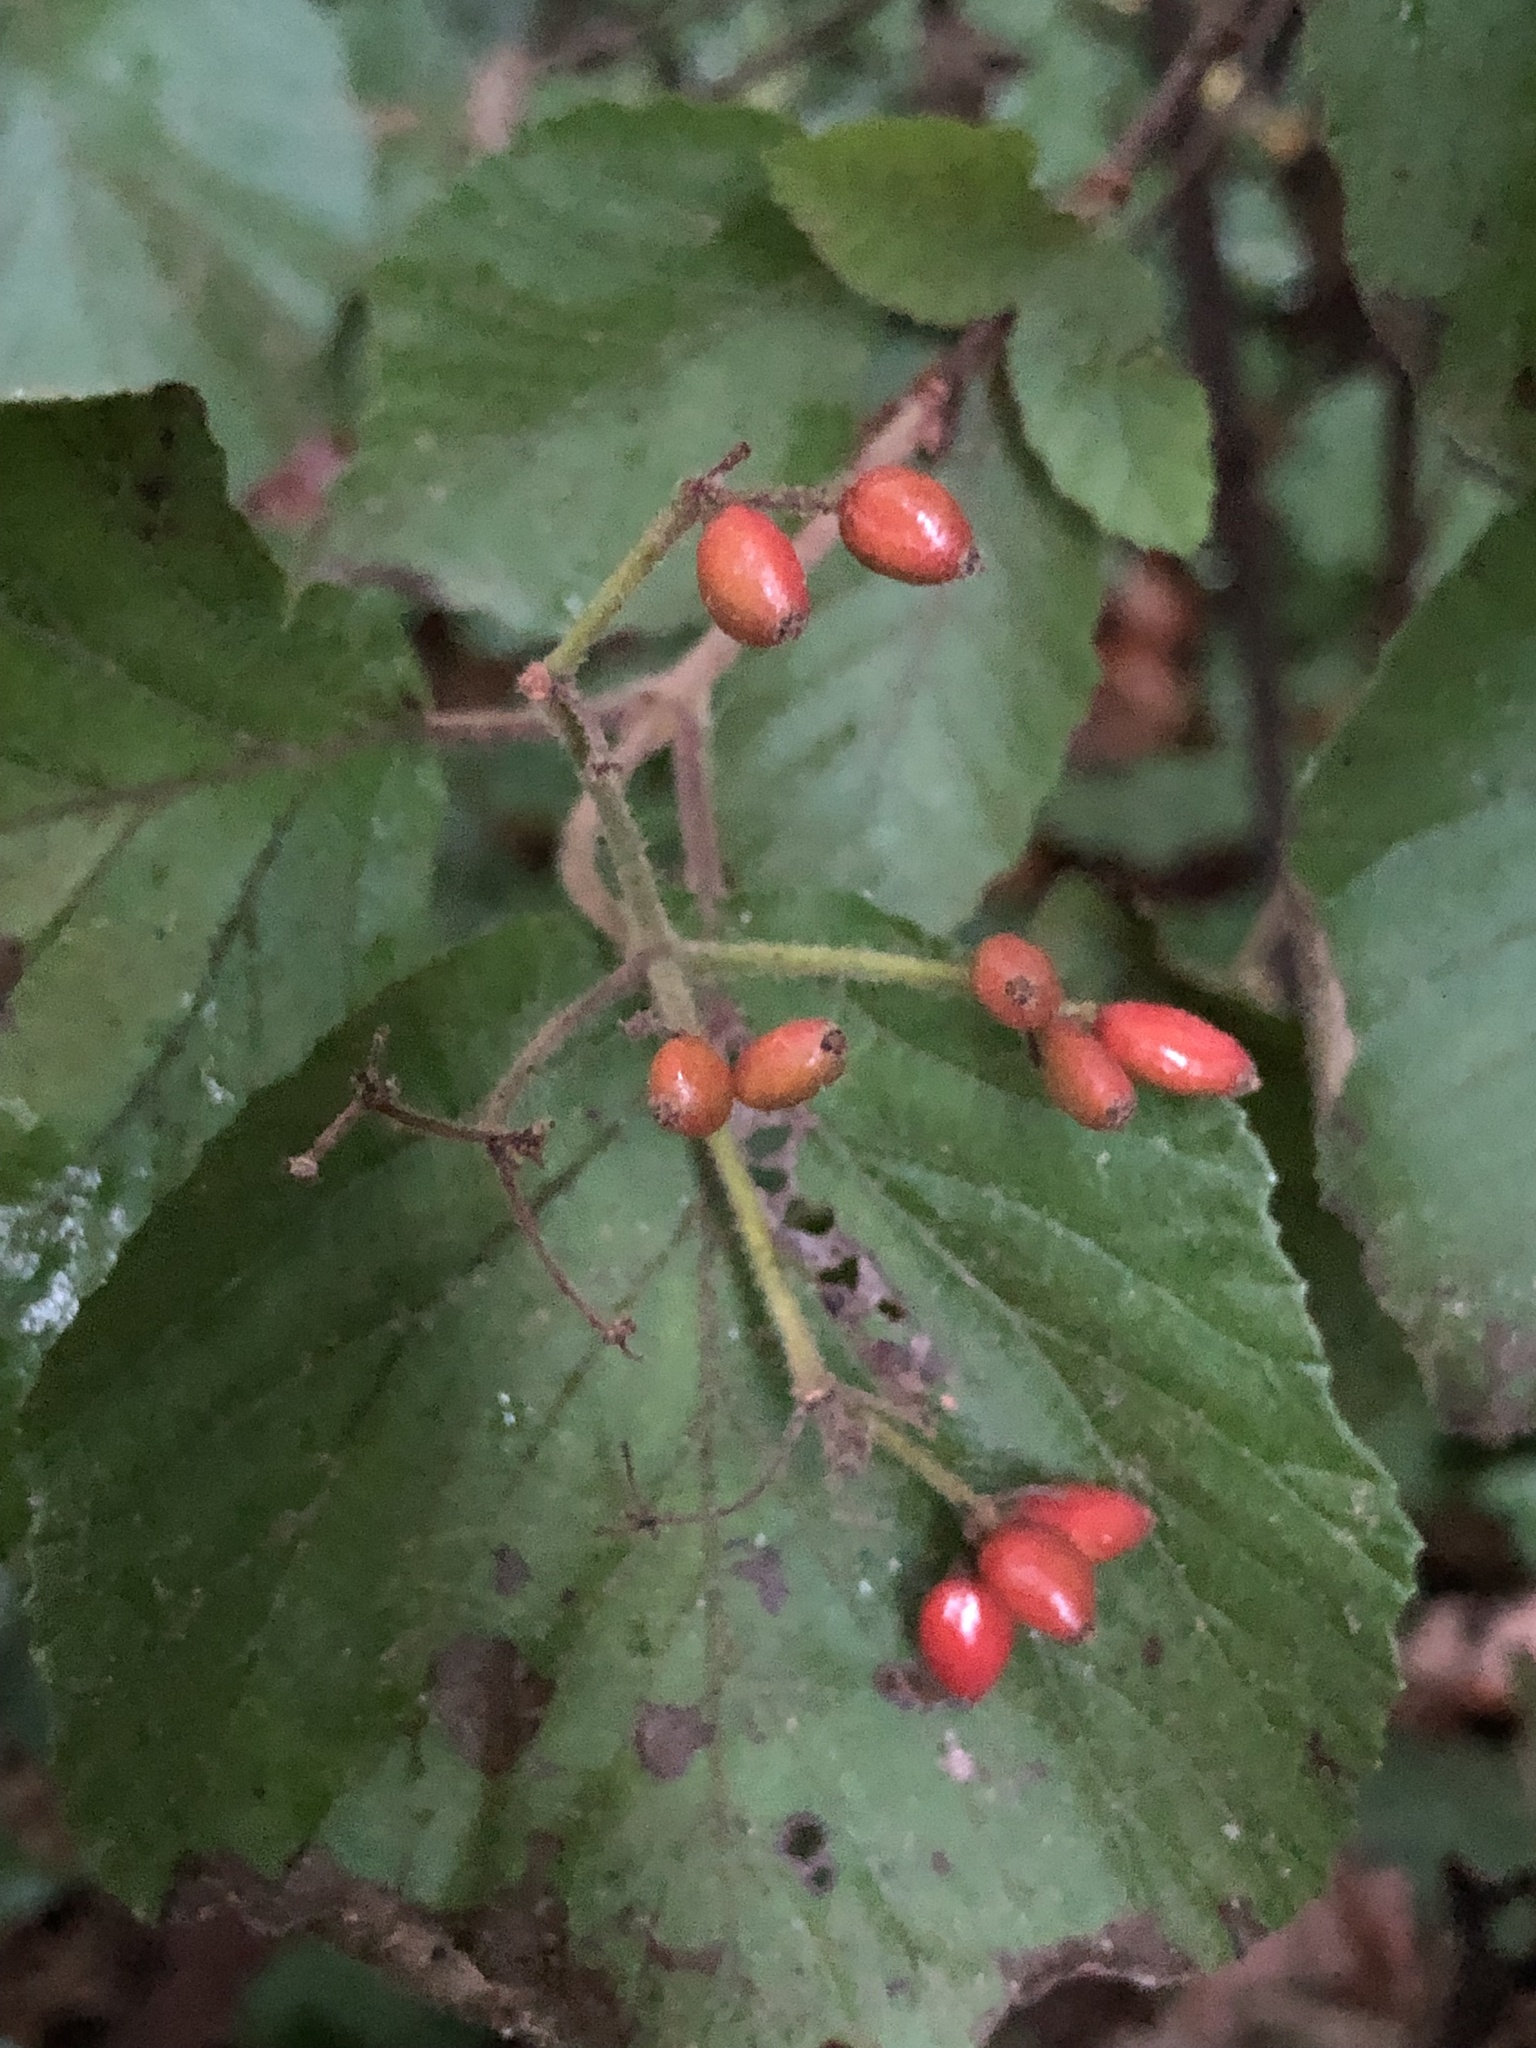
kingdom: Plantae
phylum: Tracheophyta
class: Magnoliopsida
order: Dipsacales
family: Viburnaceae
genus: Viburnum
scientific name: Viburnum dilatatum
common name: Linden arrowwood
